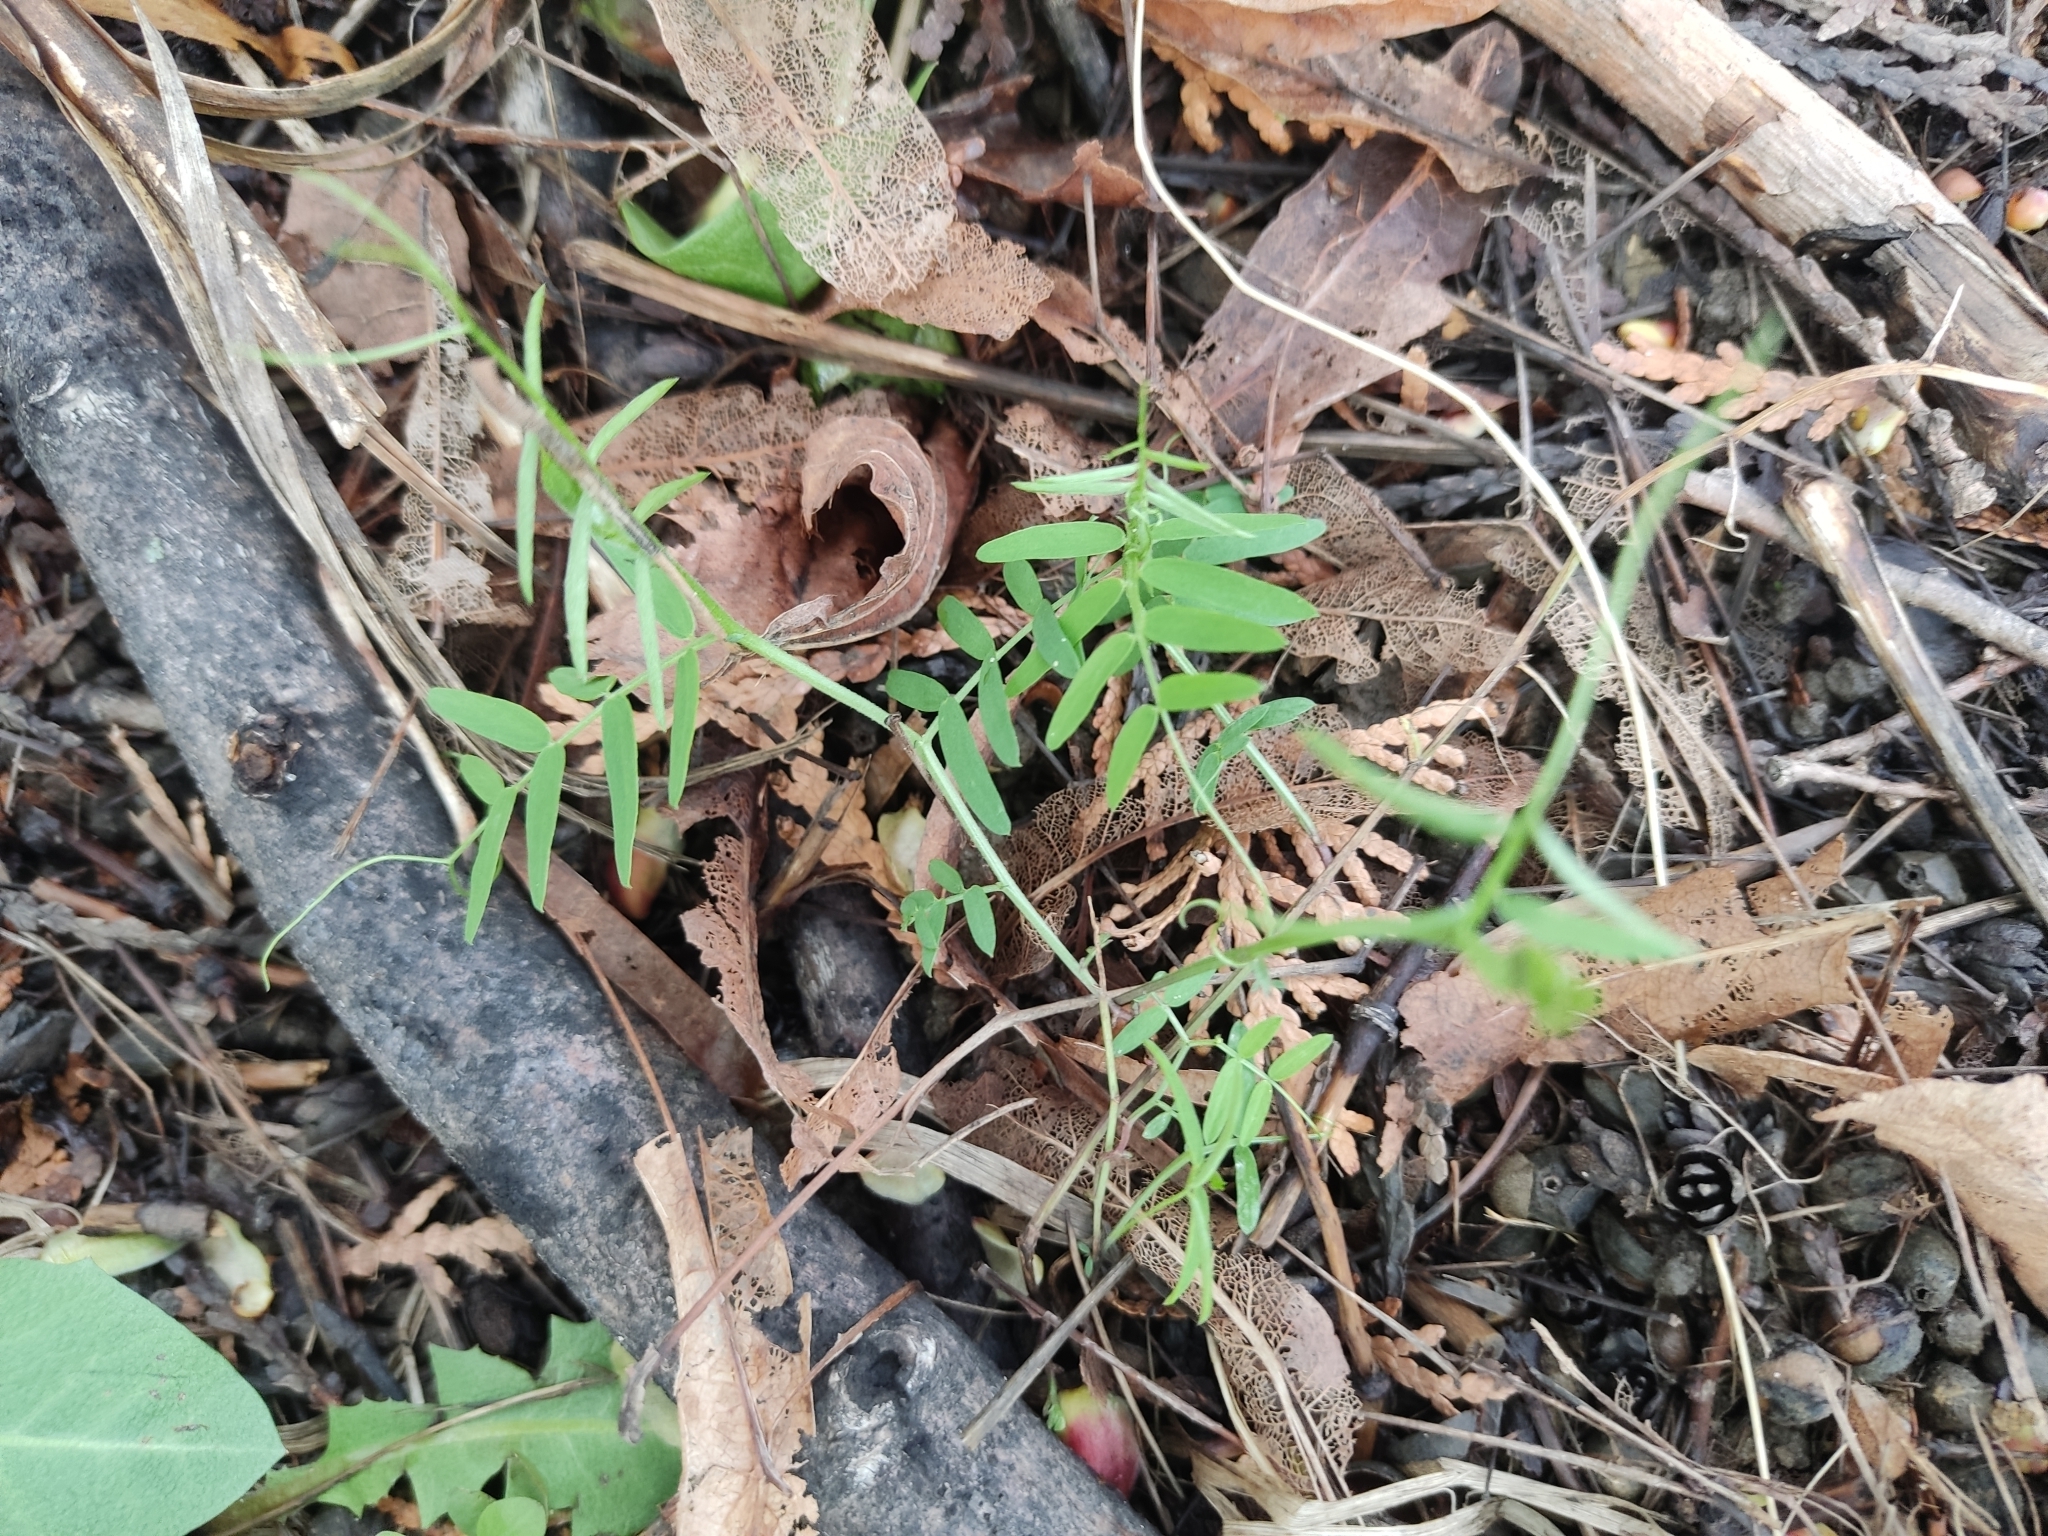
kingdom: Plantae
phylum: Tracheophyta
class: Magnoliopsida
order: Fabales
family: Fabaceae
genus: Vicia
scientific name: Vicia cracca
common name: Bird vetch
